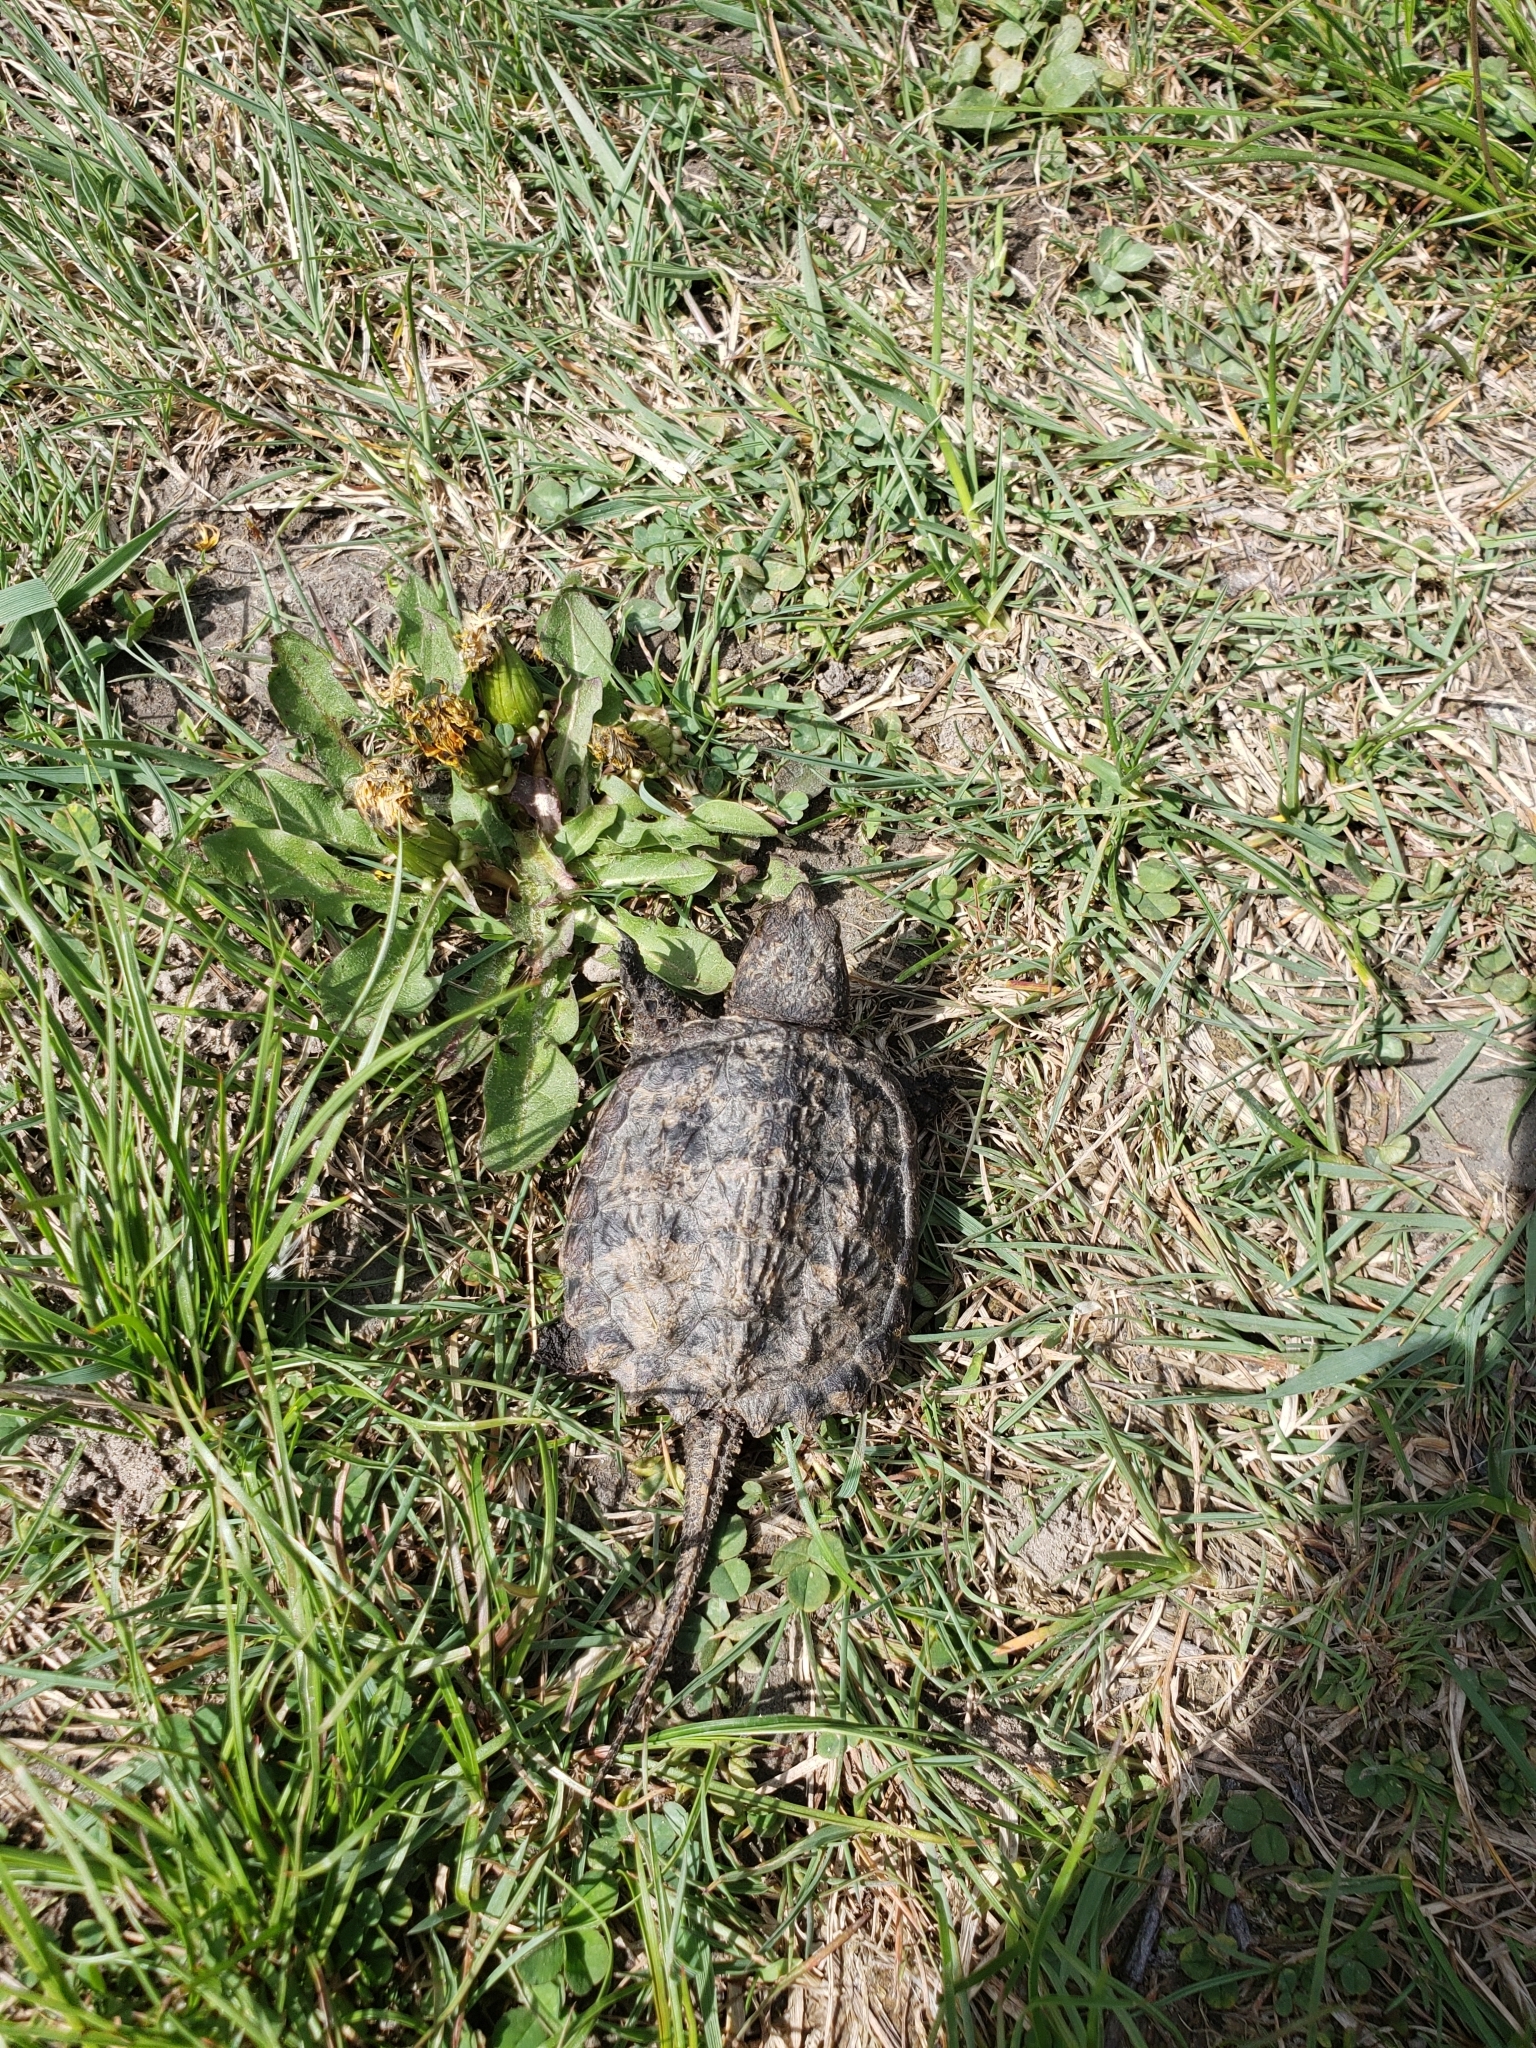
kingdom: Animalia
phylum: Chordata
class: Testudines
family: Chelydridae
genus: Chelydra
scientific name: Chelydra serpentina
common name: Common snapping turtle
